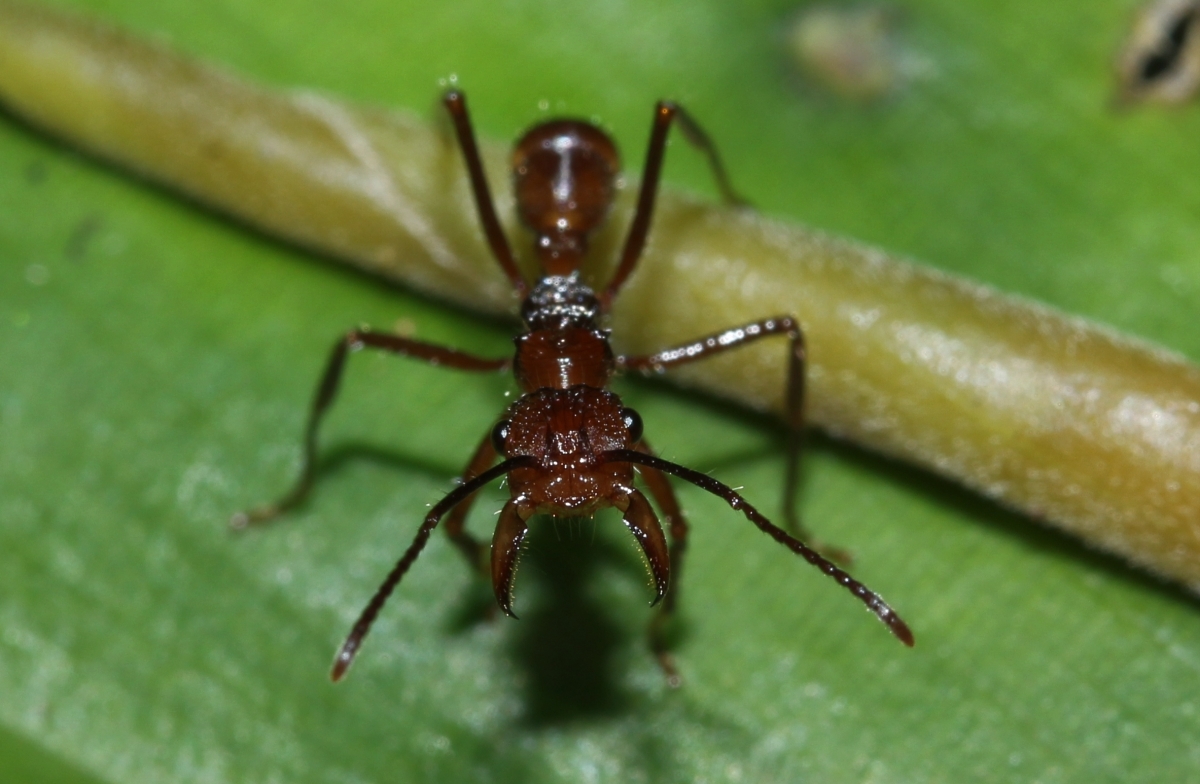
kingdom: Animalia
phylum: Arthropoda
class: Insecta
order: Hymenoptera
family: Formicidae
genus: Ectatomma
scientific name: Ectatomma tuberculatum
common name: Ant
